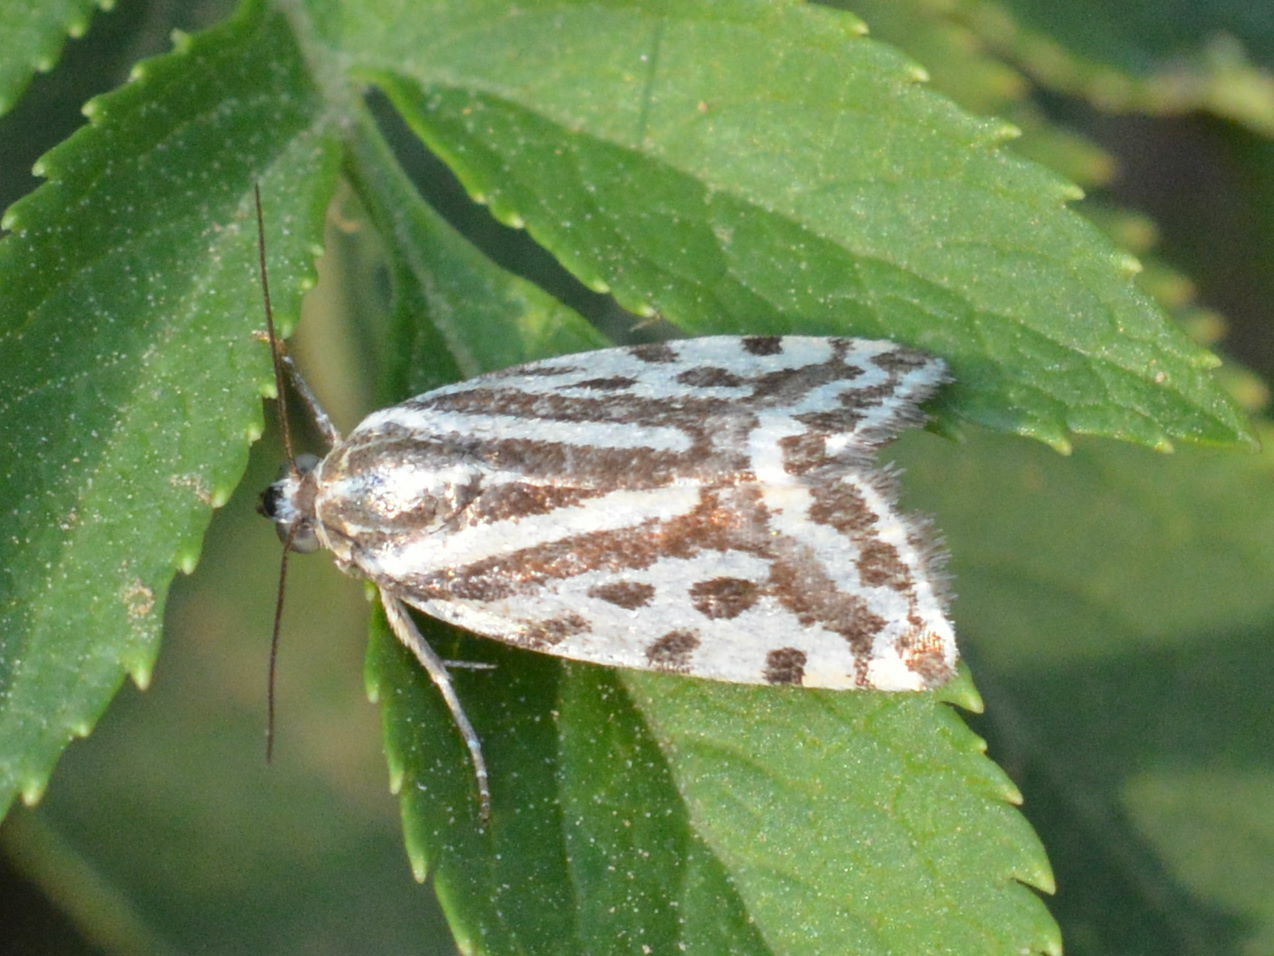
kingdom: Animalia
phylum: Arthropoda
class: Insecta
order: Lepidoptera
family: Noctuidae
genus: Acontia
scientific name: Acontia trabealis
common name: Spotted sulphur
